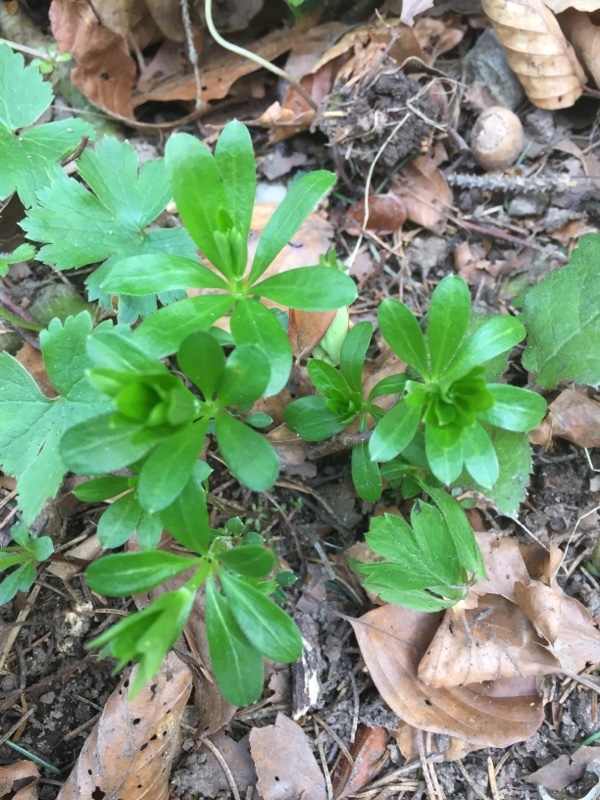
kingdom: Plantae
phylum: Tracheophyta
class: Magnoliopsida
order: Gentianales
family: Rubiaceae
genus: Galium
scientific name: Galium odoratum
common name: Sweet woodruff
